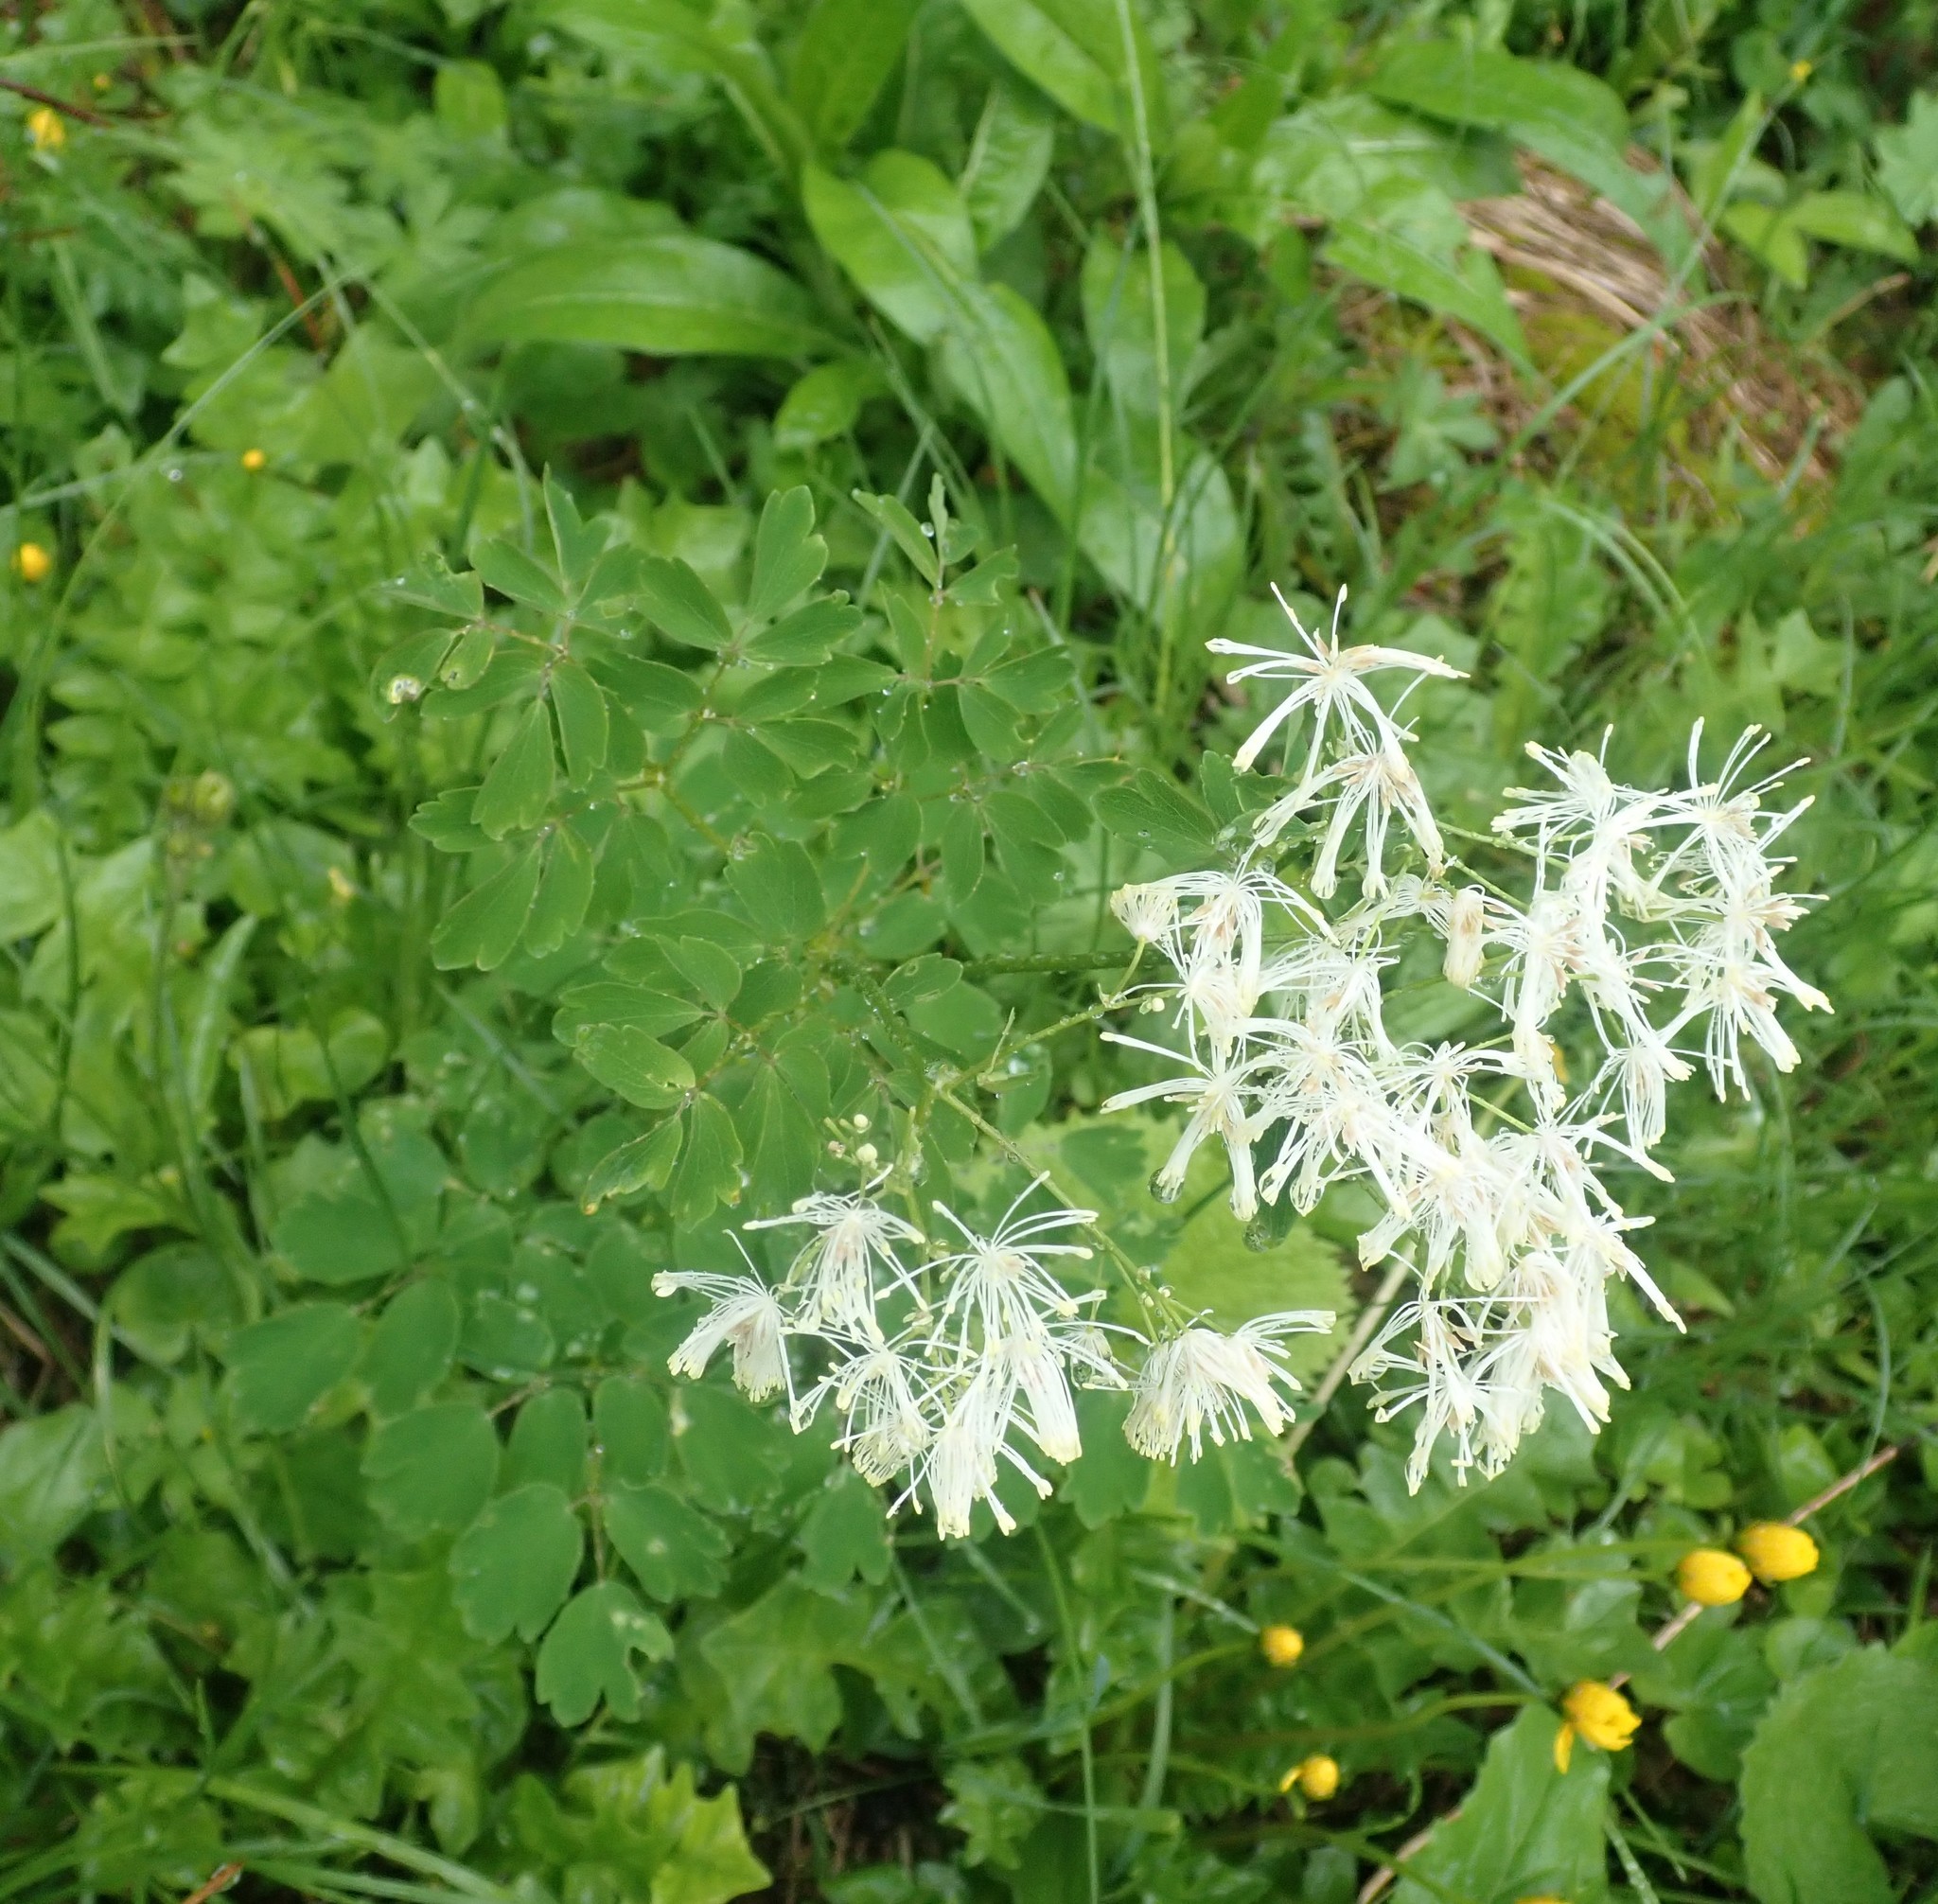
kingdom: Plantae
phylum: Tracheophyta
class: Magnoliopsida
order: Ranunculales
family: Ranunculaceae
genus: Thalictrum
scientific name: Thalictrum aquilegiifolium
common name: French meadow-rue
